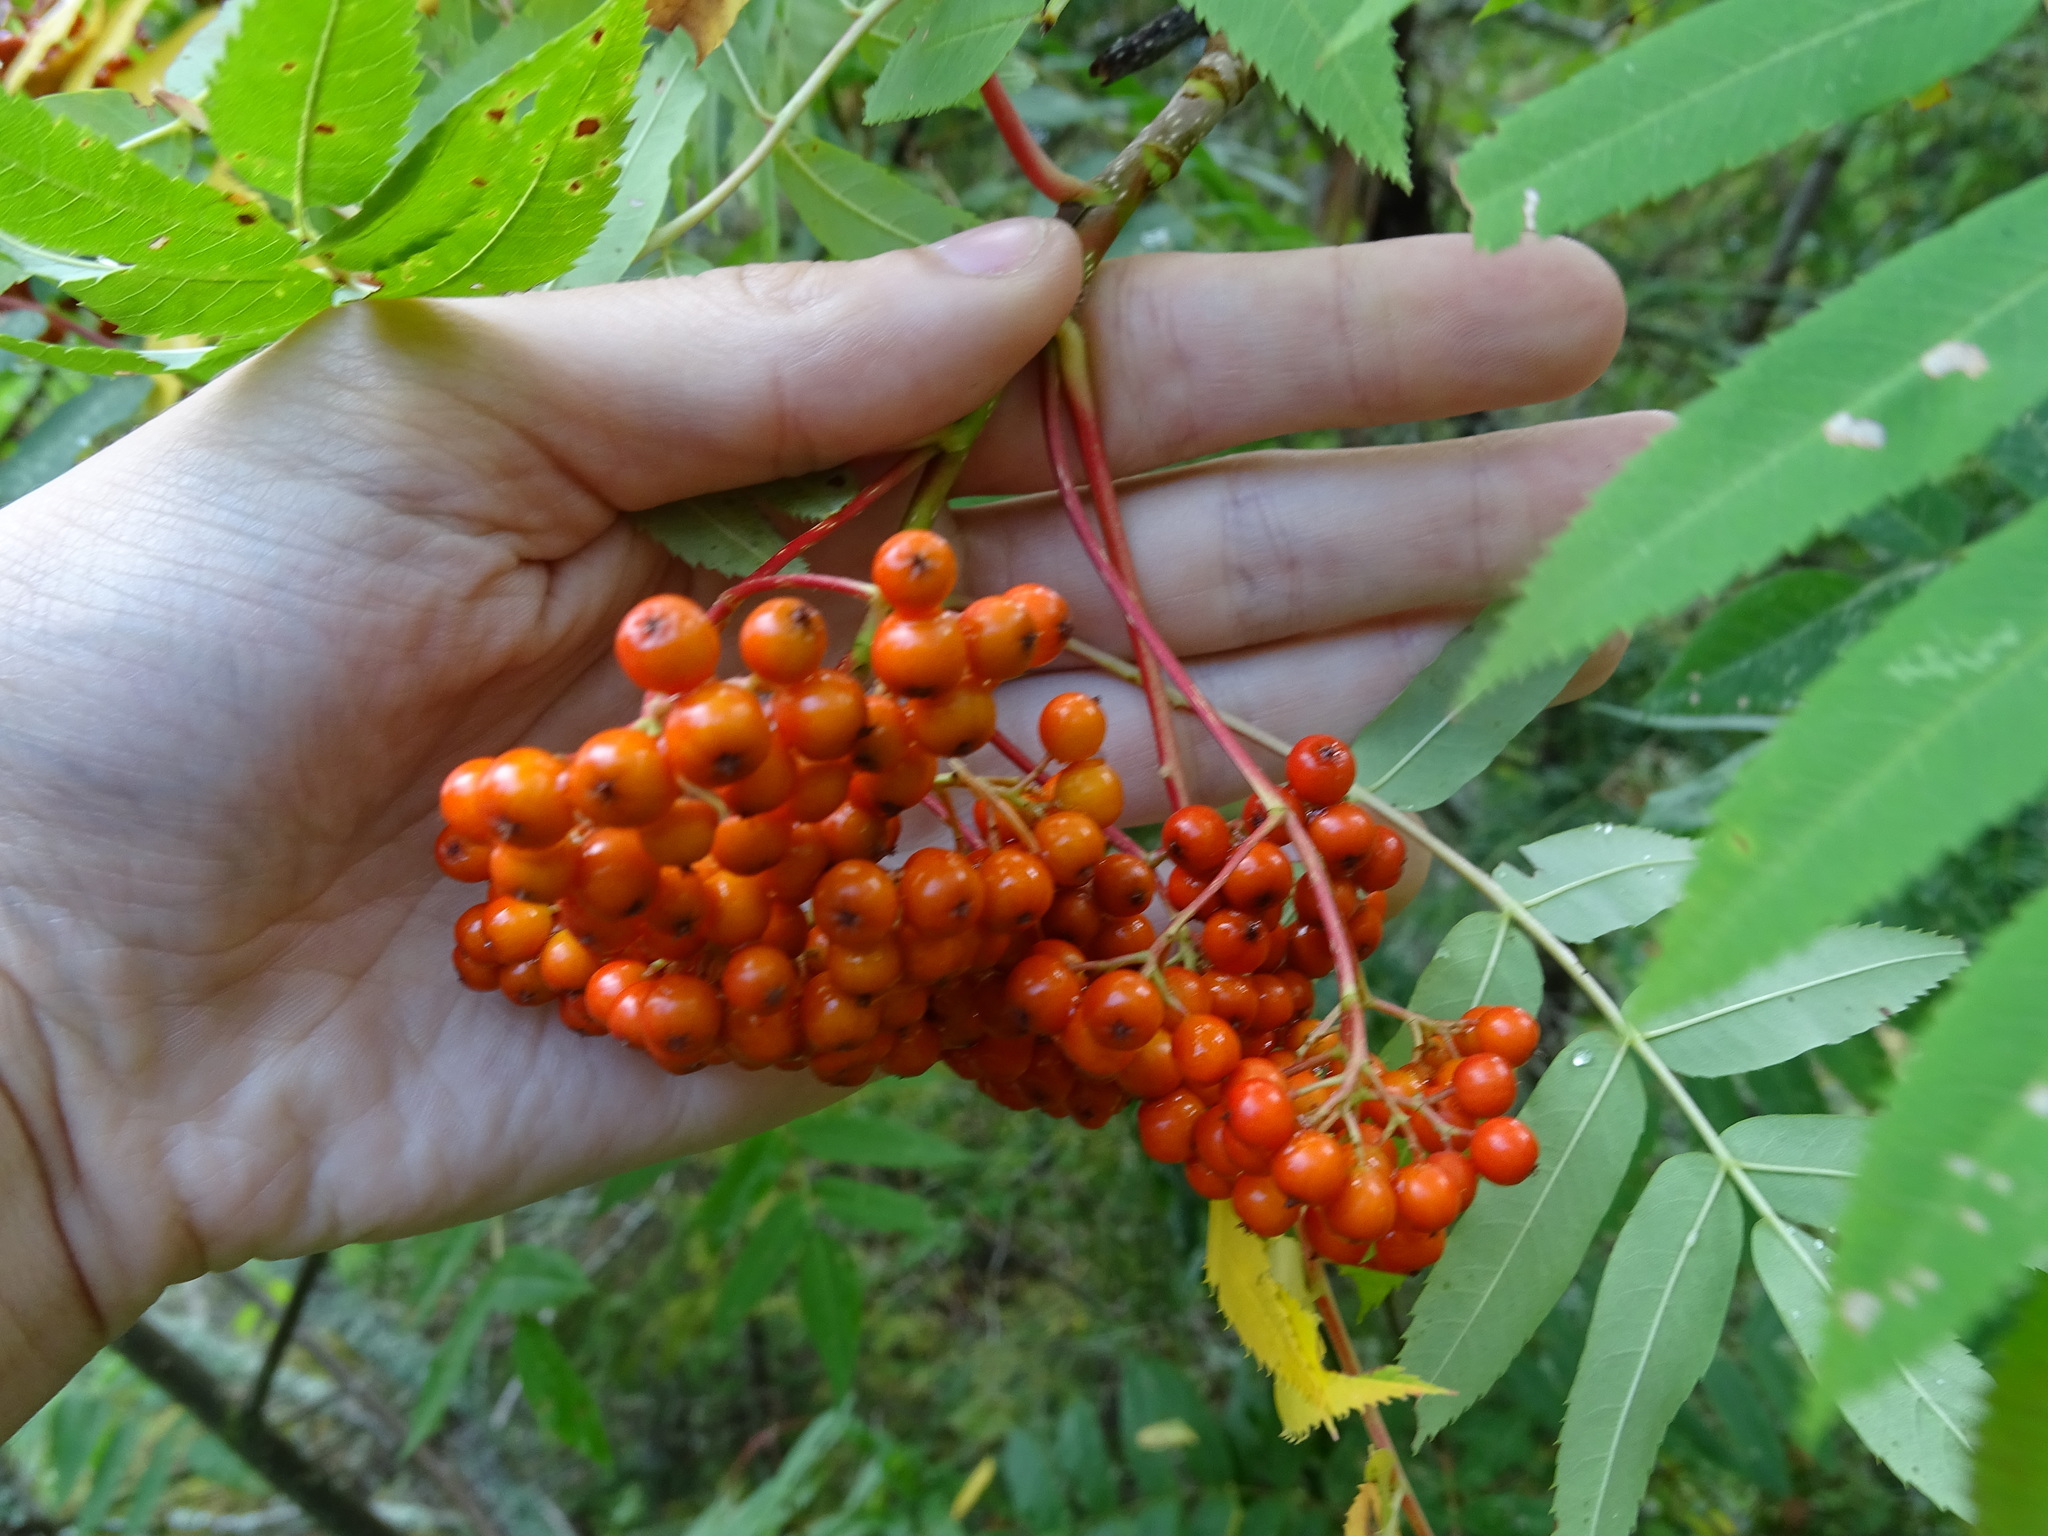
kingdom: Plantae
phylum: Tracheophyta
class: Magnoliopsida
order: Rosales
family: Rosaceae
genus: Sorbus
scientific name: Sorbus americana
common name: American mountain-ash
